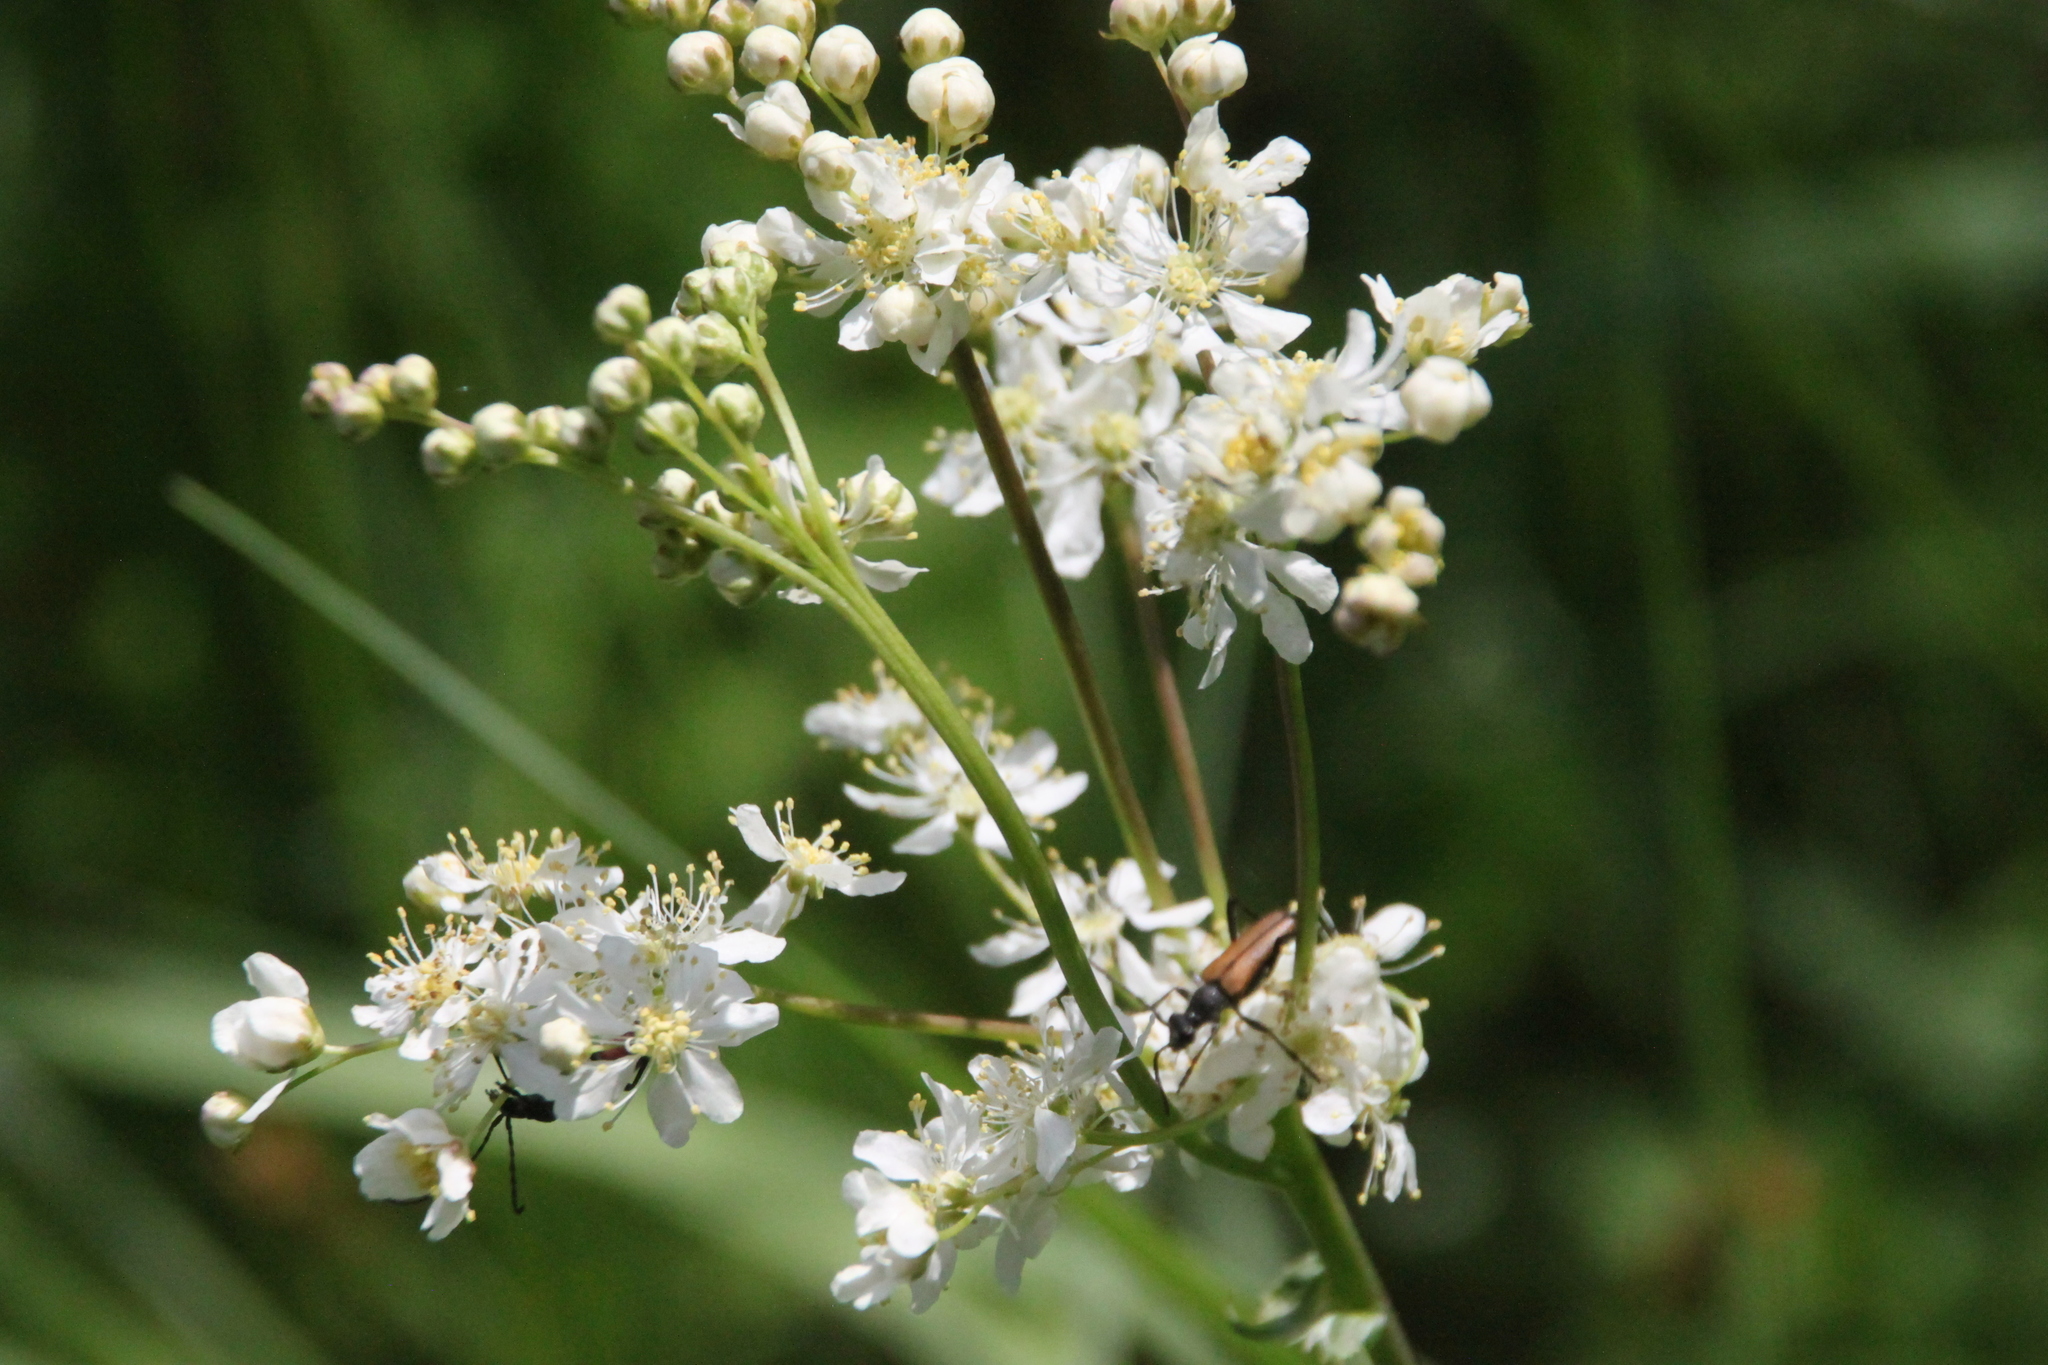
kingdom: Plantae
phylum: Tracheophyta
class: Magnoliopsida
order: Rosales
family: Rosaceae
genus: Filipendula
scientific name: Filipendula vulgaris
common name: Dropwort
